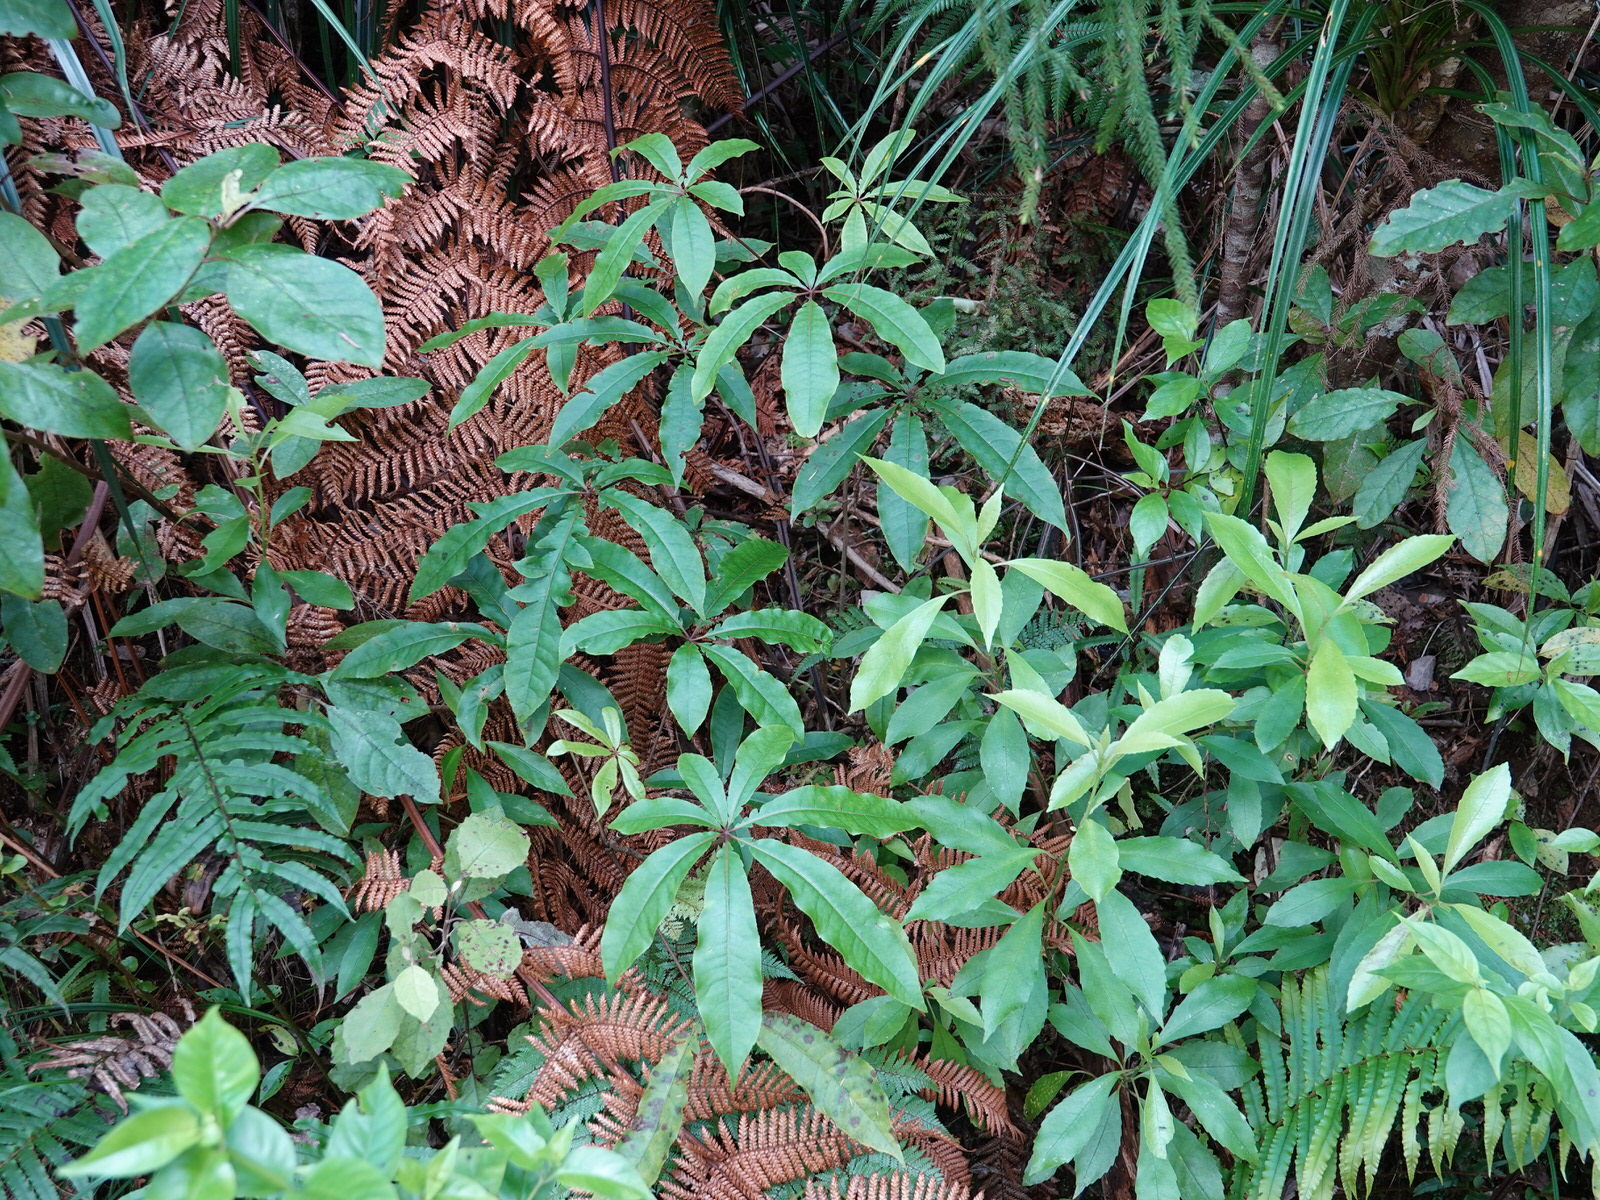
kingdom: Plantae
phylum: Tracheophyta
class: Magnoliopsida
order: Apiales
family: Araliaceae
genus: Schefflera
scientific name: Schefflera digitata
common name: Pate
